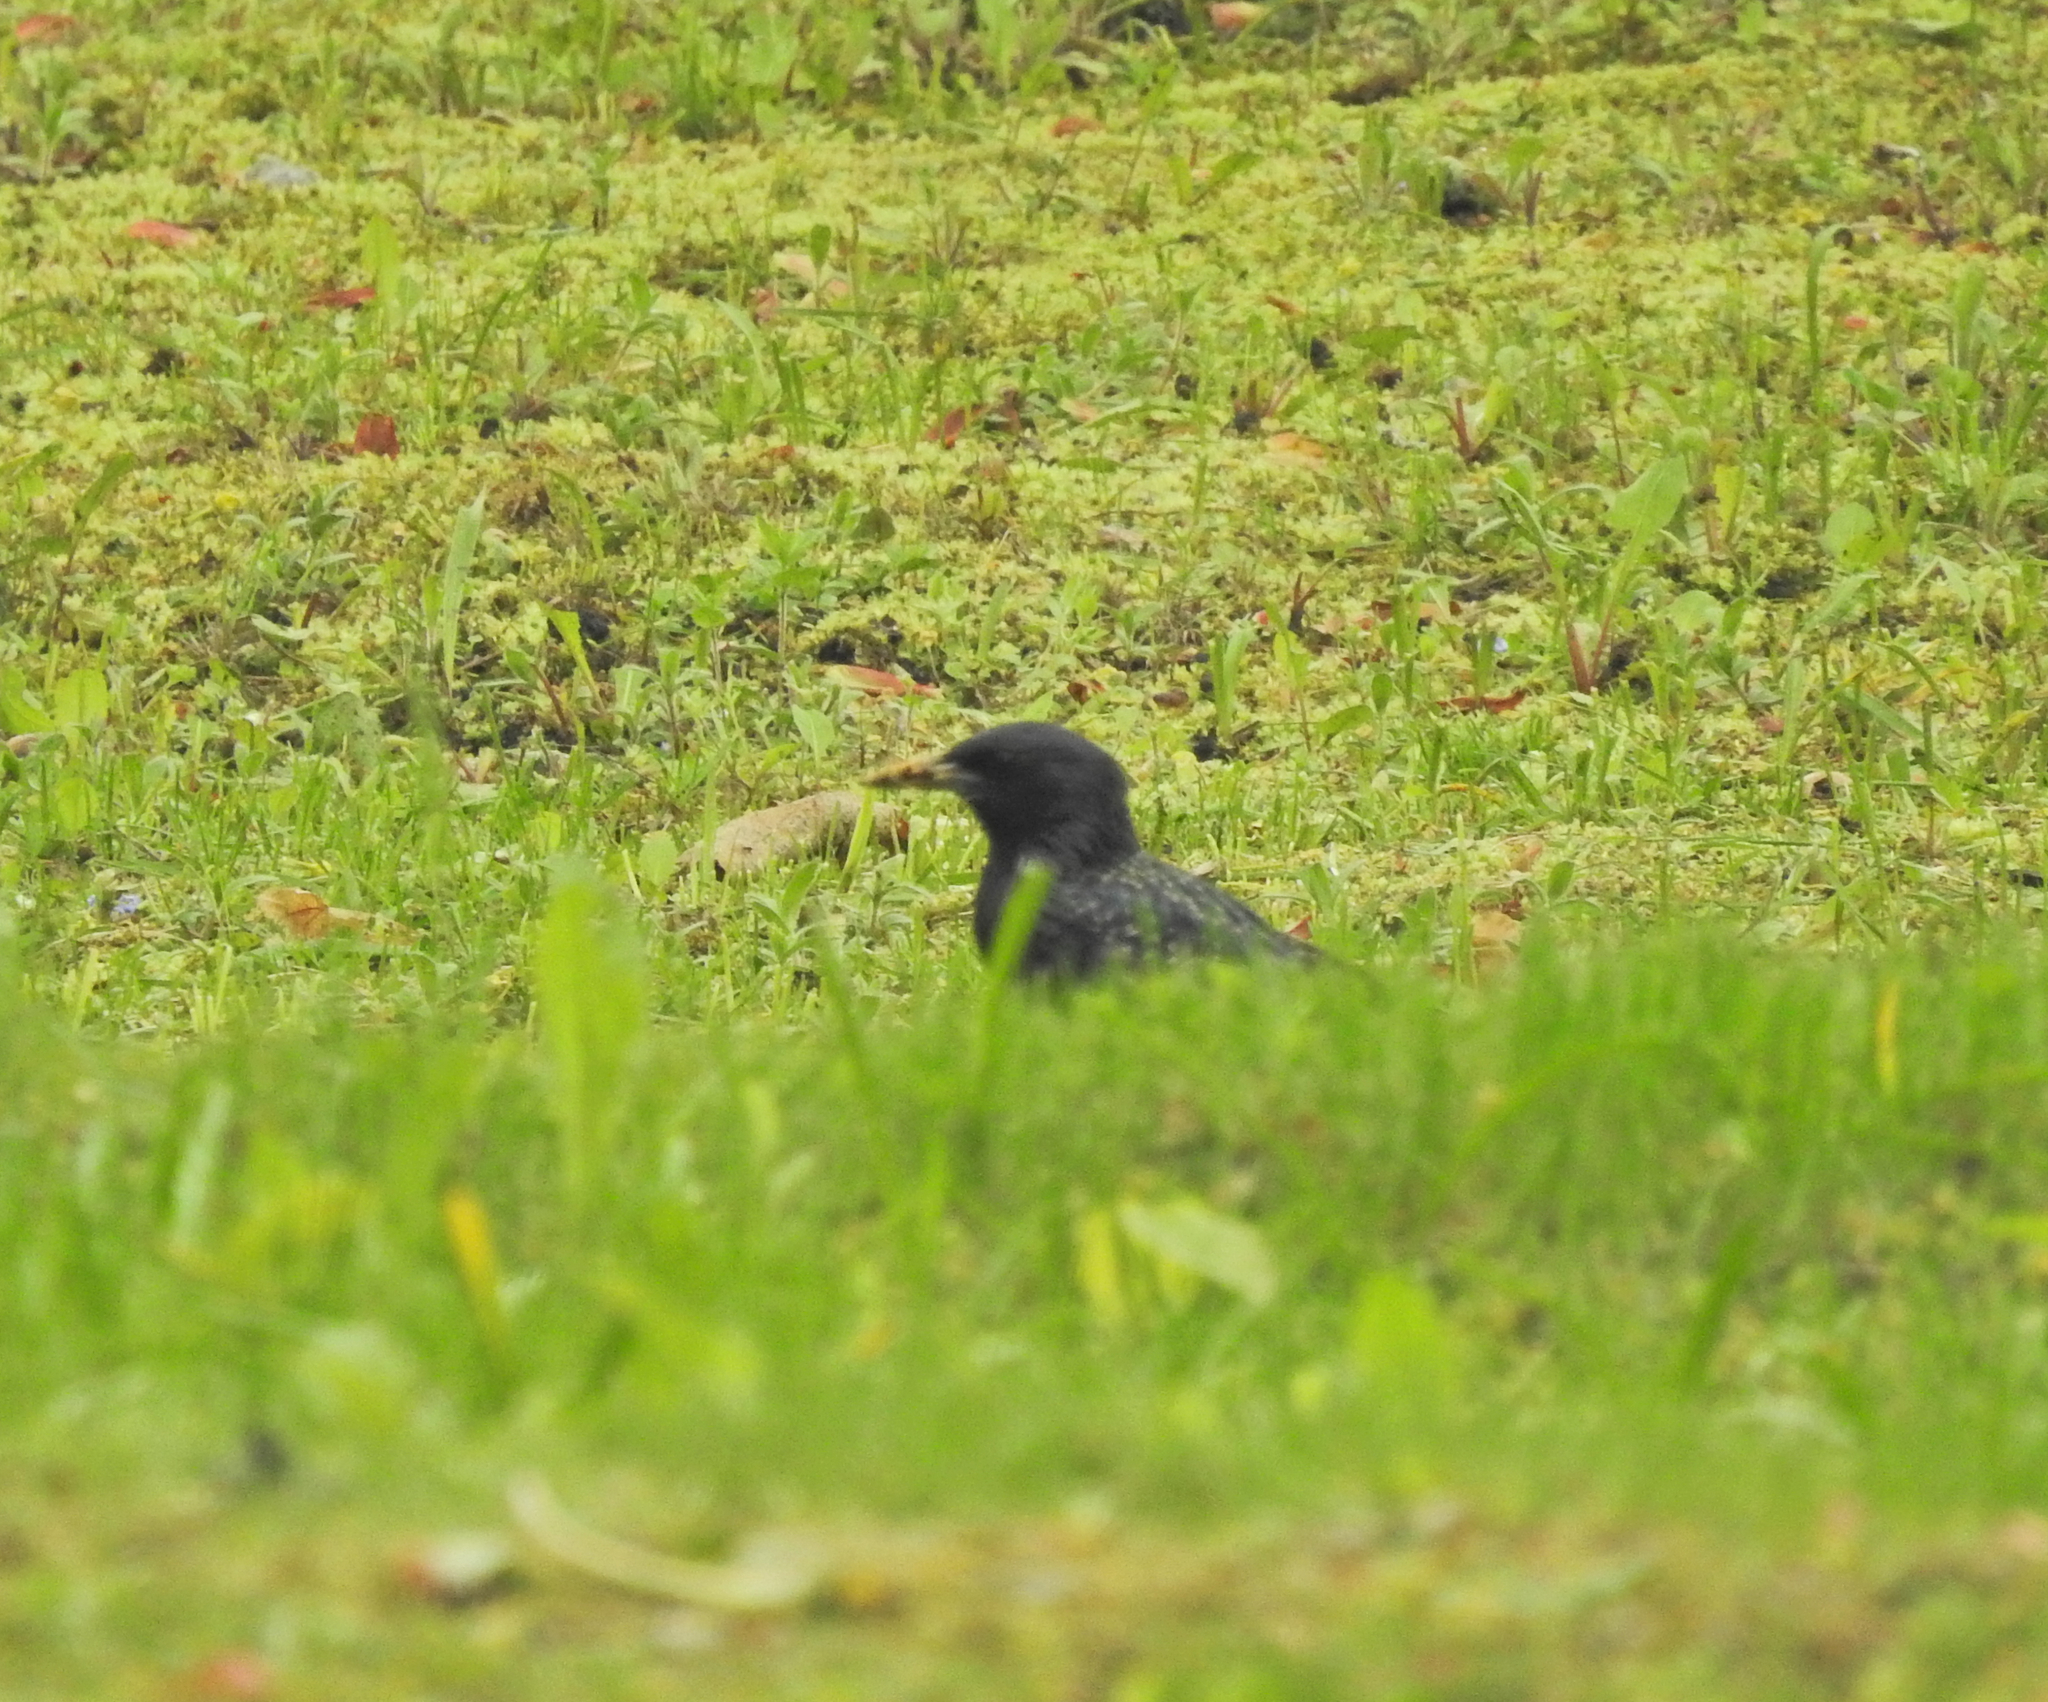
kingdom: Animalia
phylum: Chordata
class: Aves
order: Passeriformes
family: Sturnidae
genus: Sturnus
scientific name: Sturnus vulgaris
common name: Common starling
